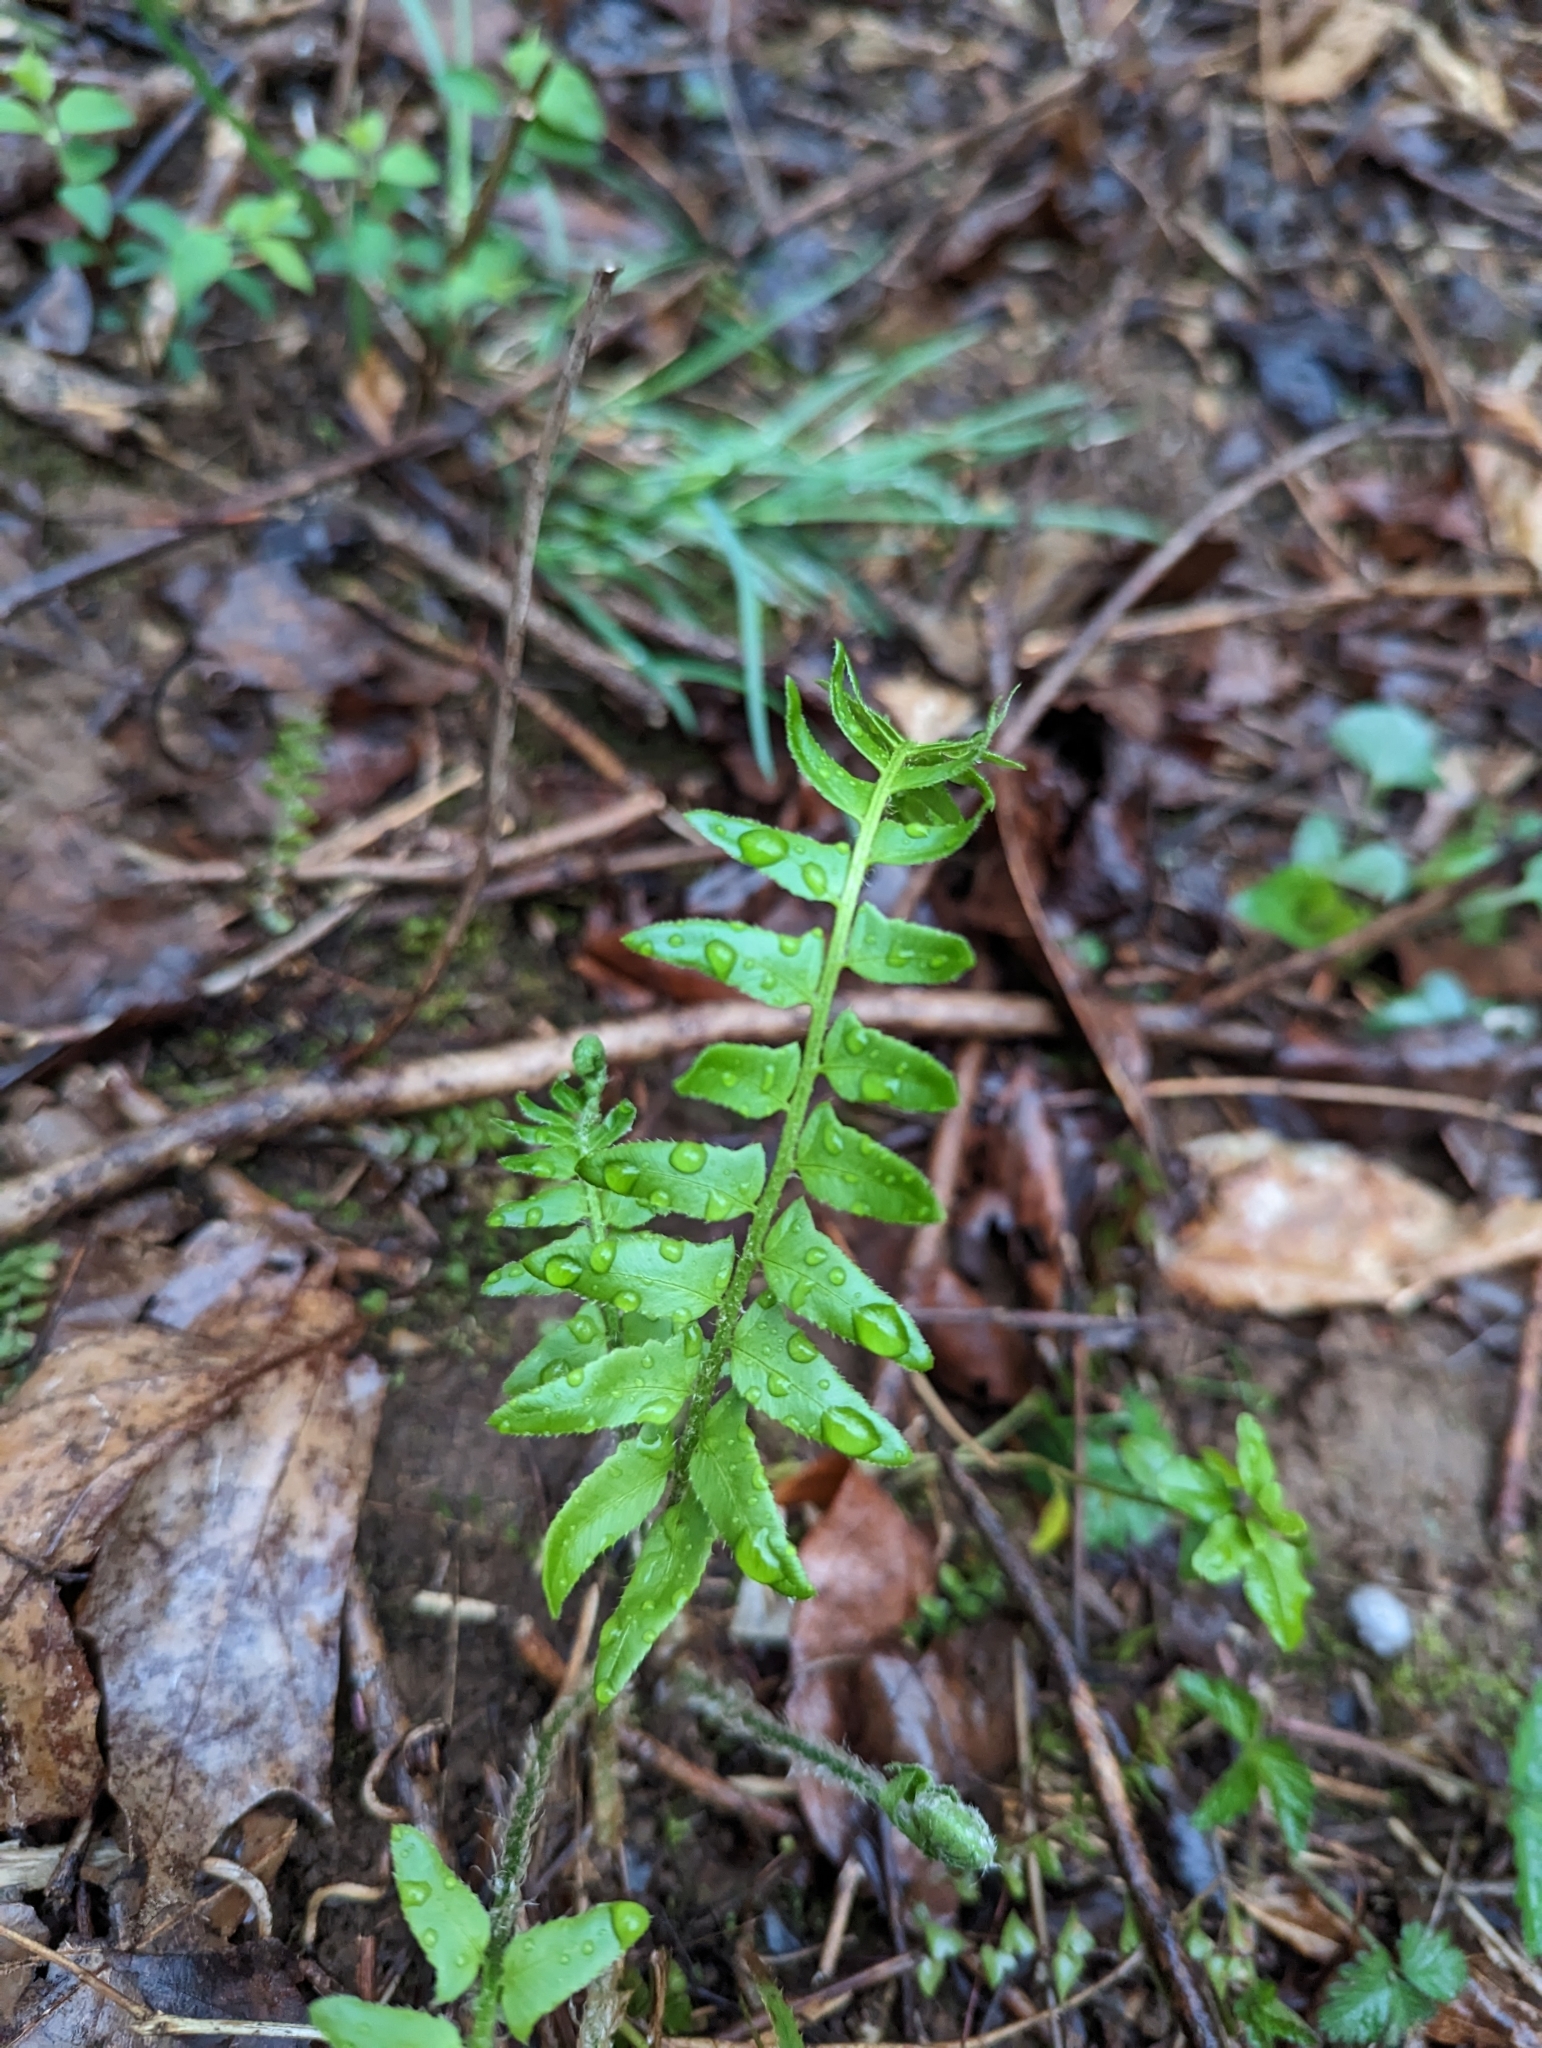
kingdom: Plantae
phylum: Tracheophyta
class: Polypodiopsida
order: Polypodiales
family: Dryopteridaceae
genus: Polystichum
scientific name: Polystichum acrostichoides
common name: Christmas fern
